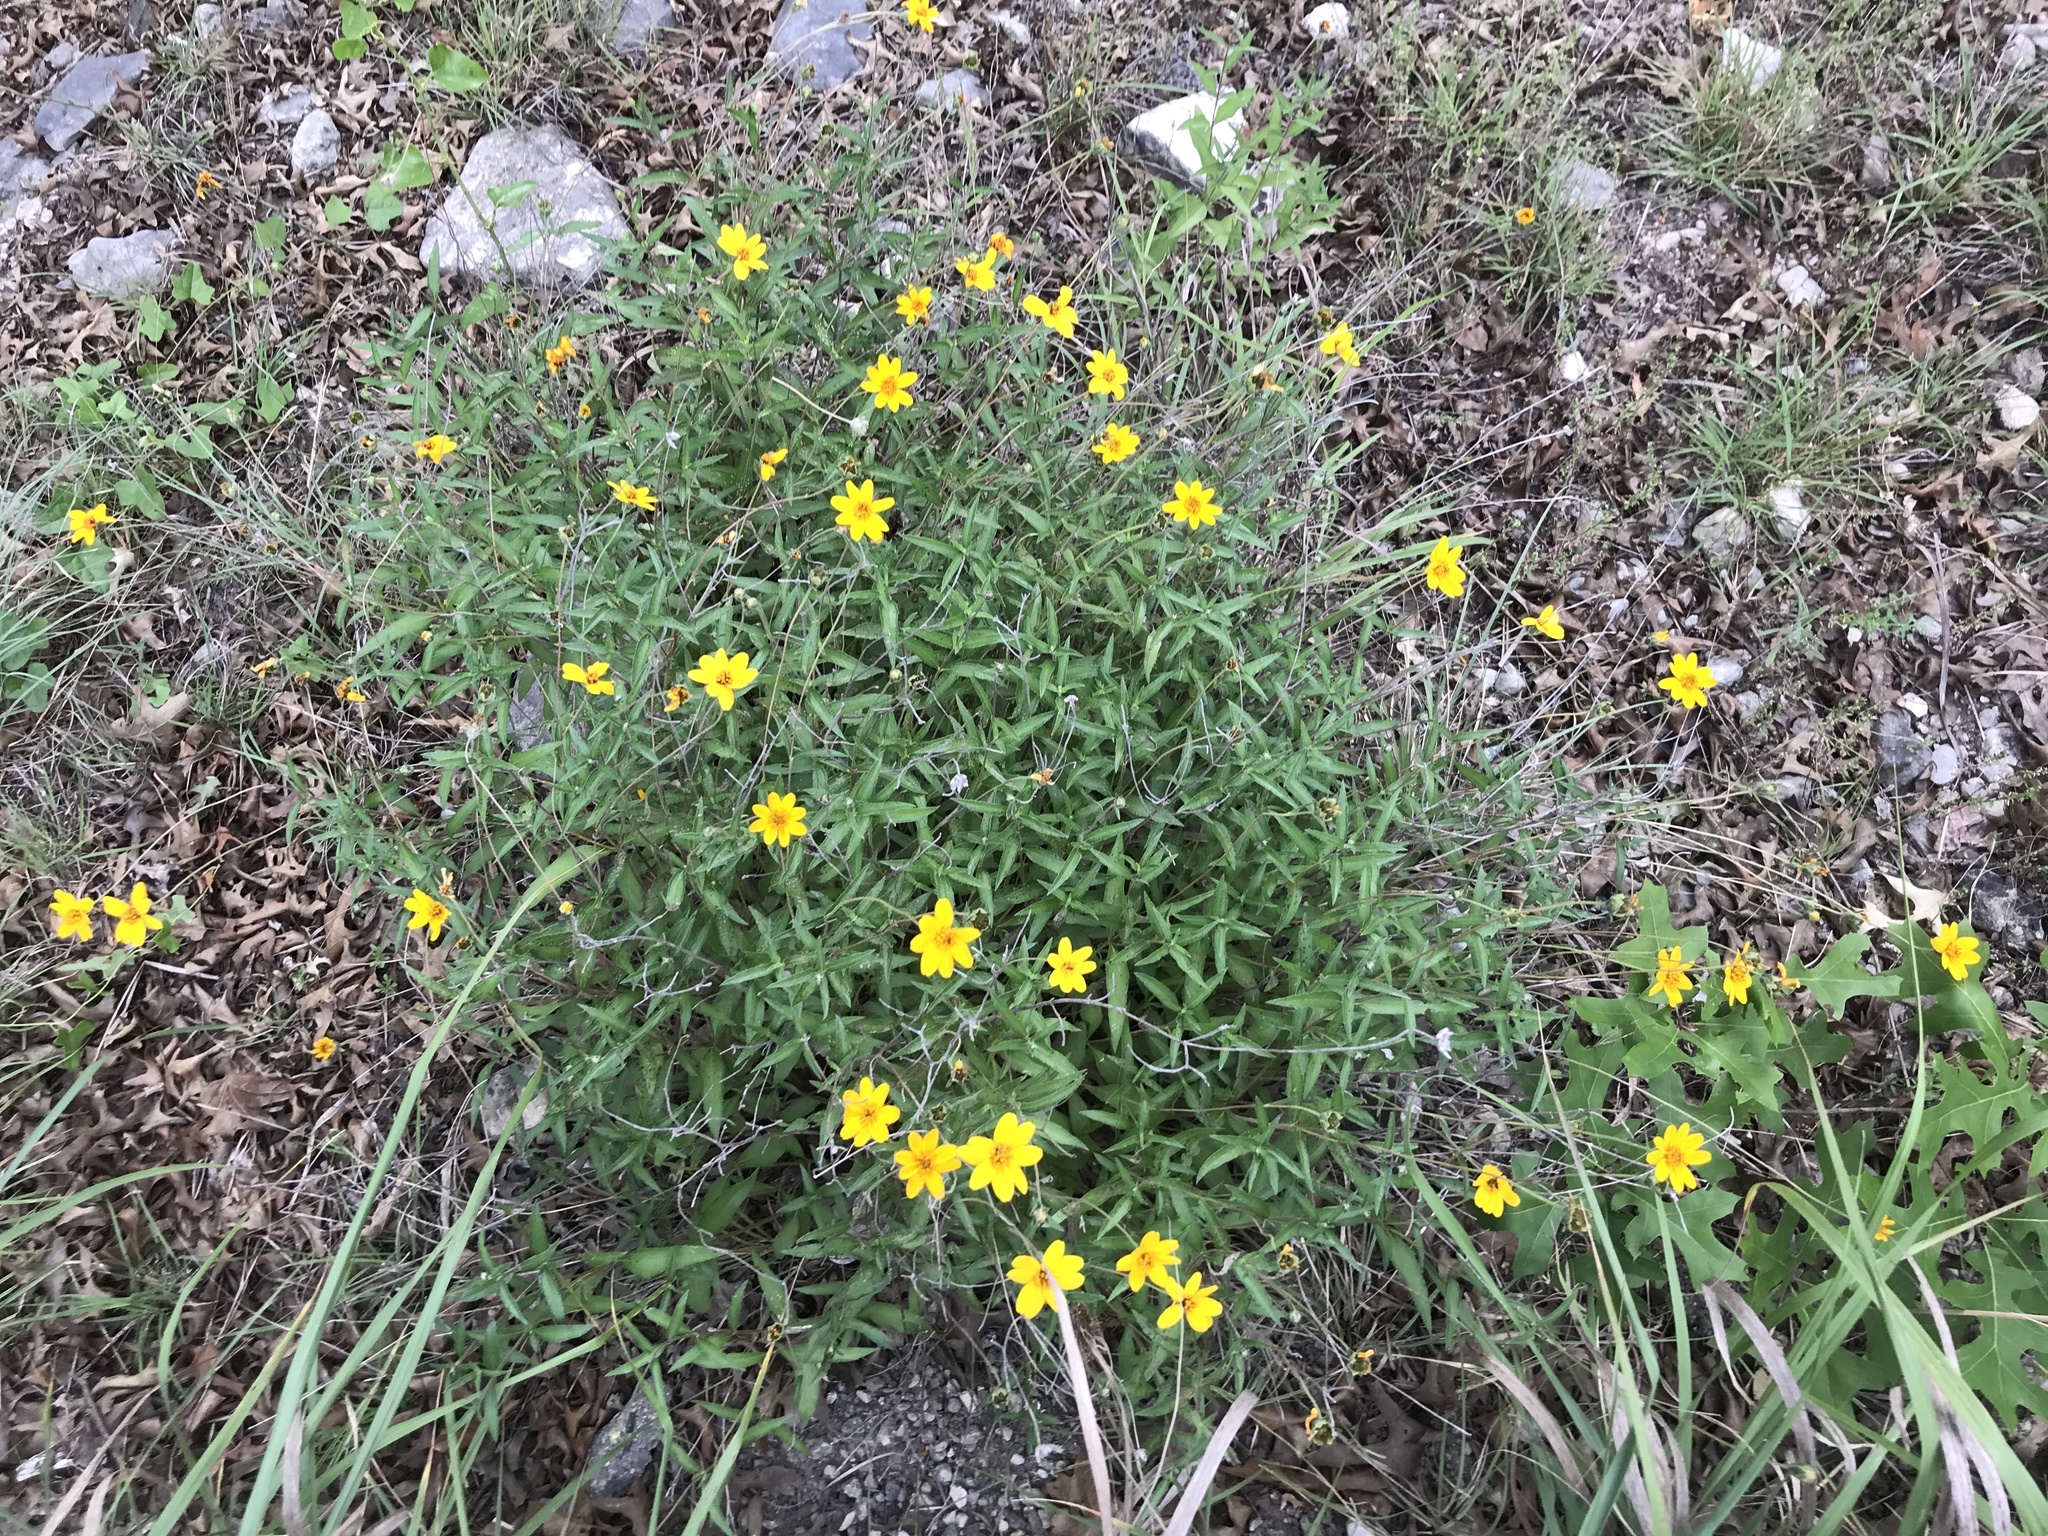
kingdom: Plantae
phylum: Tracheophyta
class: Magnoliopsida
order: Asterales
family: Asteraceae
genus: Wedelia
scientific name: Wedelia acapulcensis
